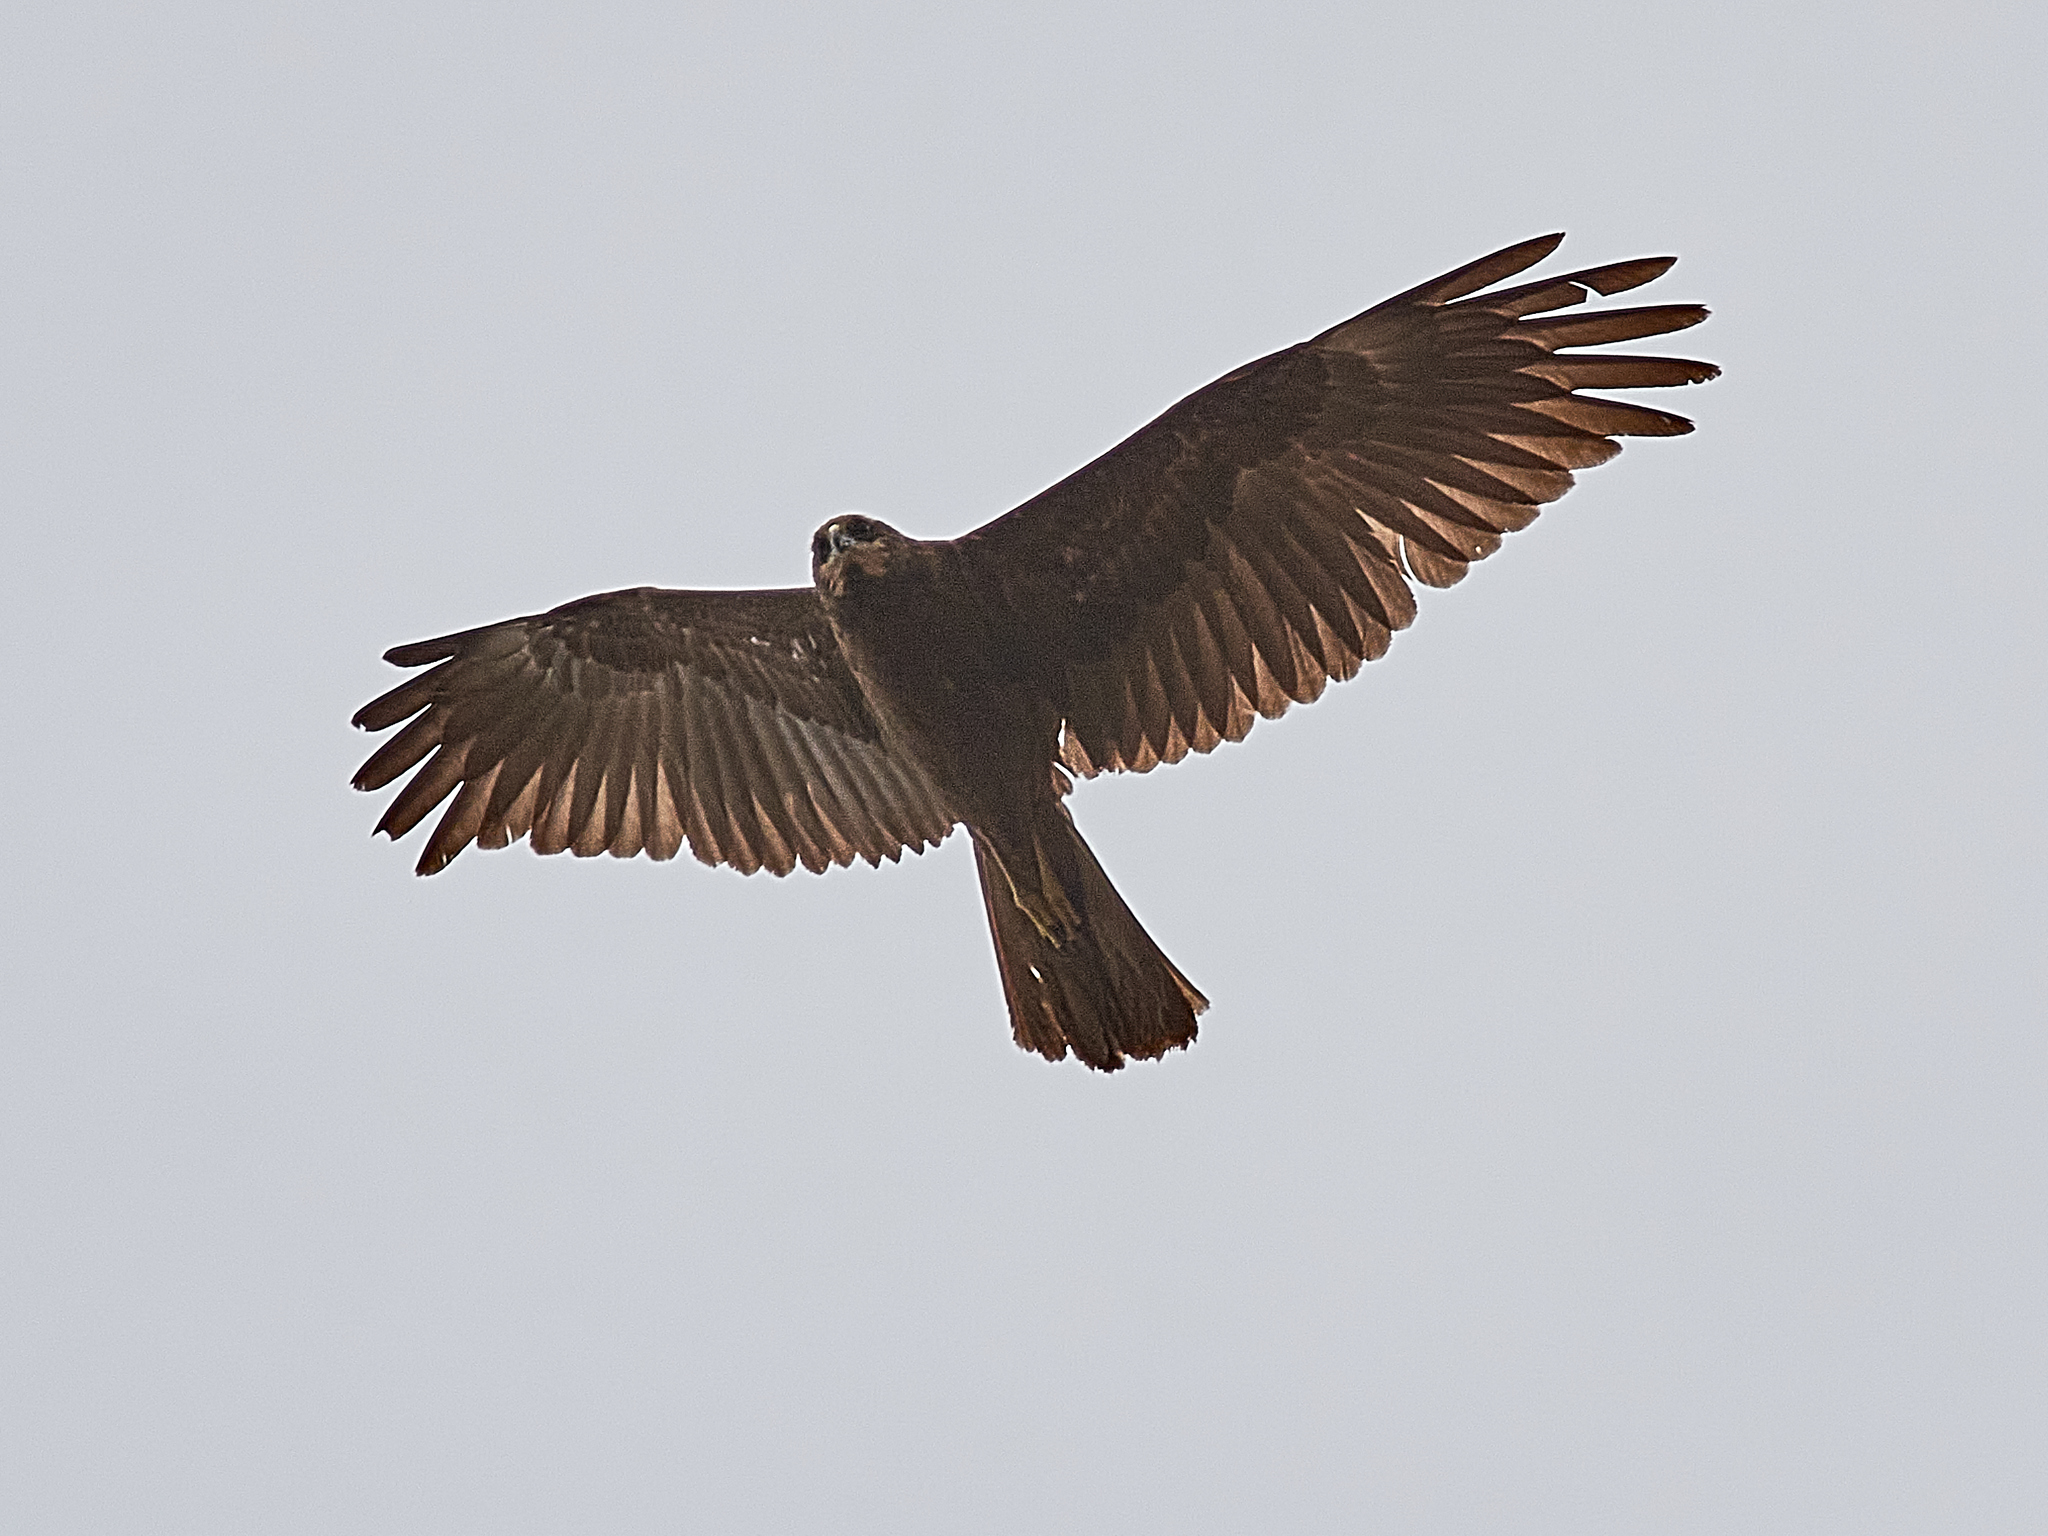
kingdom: Animalia
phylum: Chordata
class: Aves
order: Accipitriformes
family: Accipitridae
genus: Circus
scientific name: Circus aeruginosus
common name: Western marsh harrier
